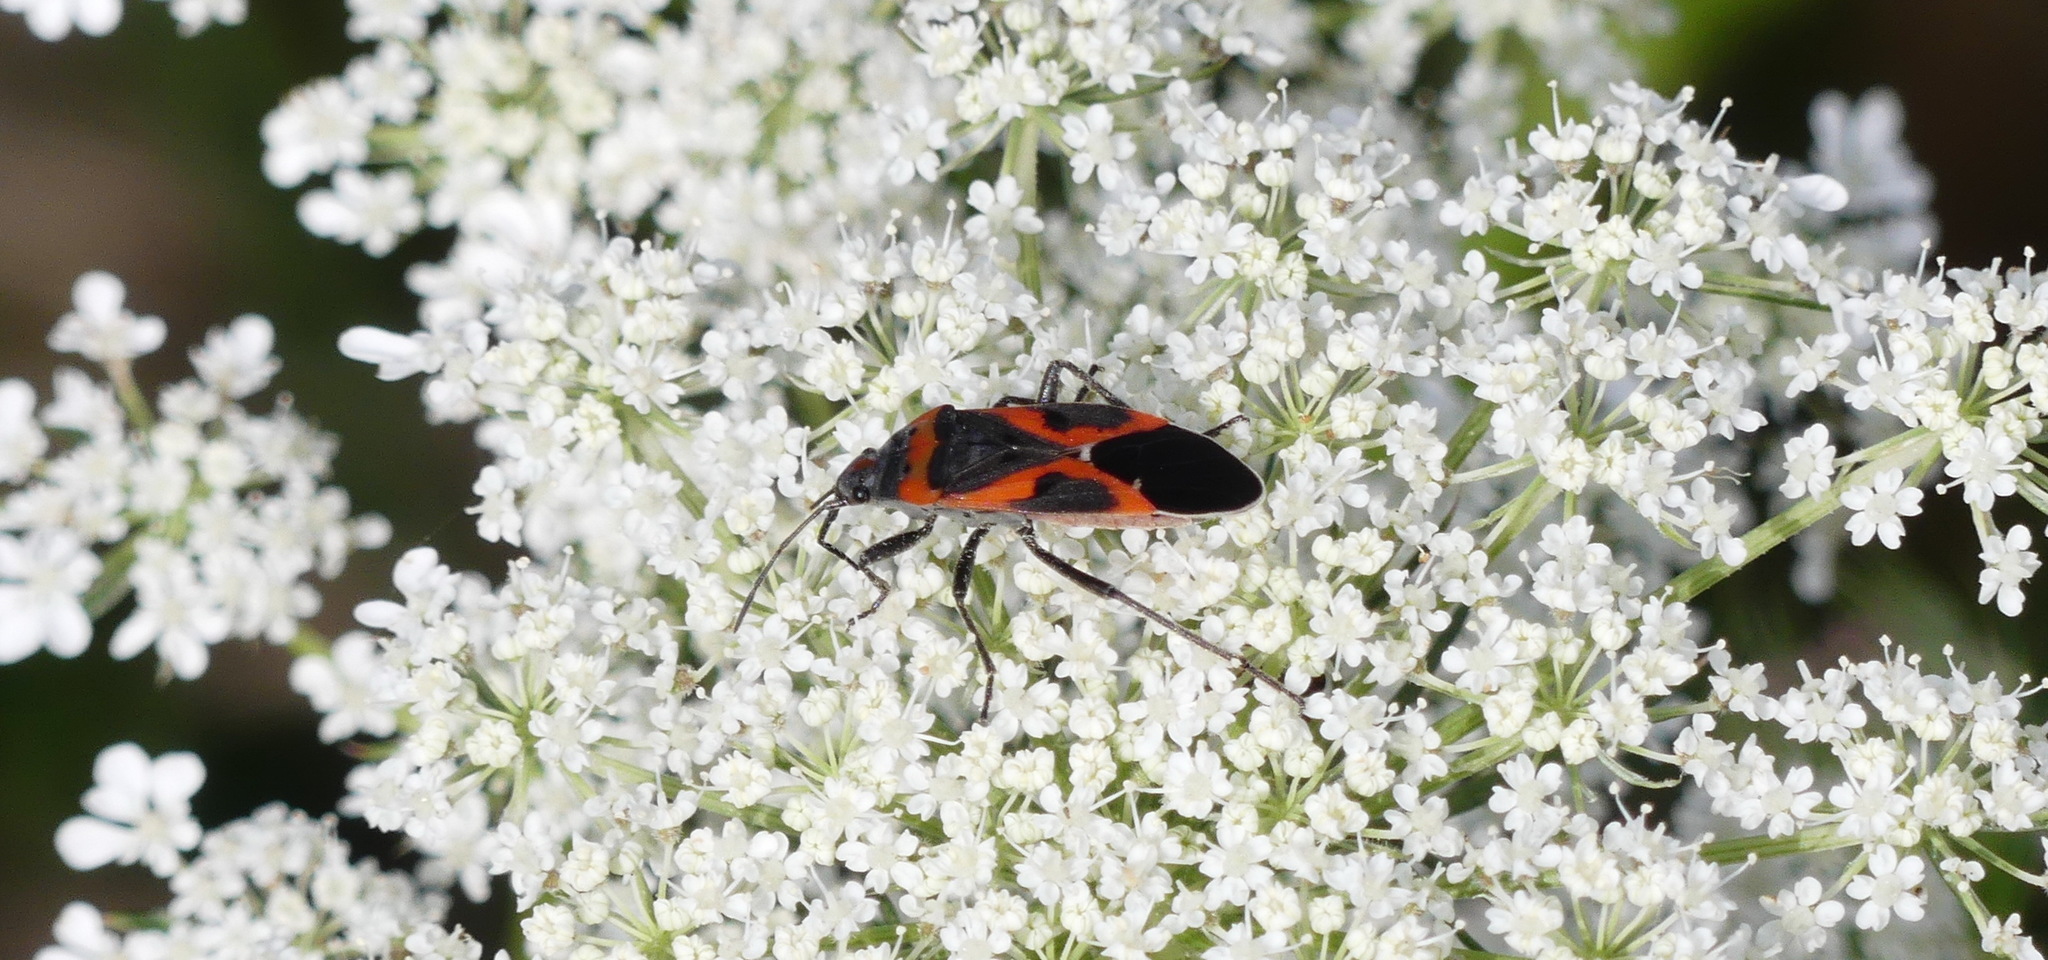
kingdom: Animalia
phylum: Arthropoda
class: Insecta
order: Hemiptera
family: Lygaeidae
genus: Lygaeus
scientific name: Lygaeus kalmii
